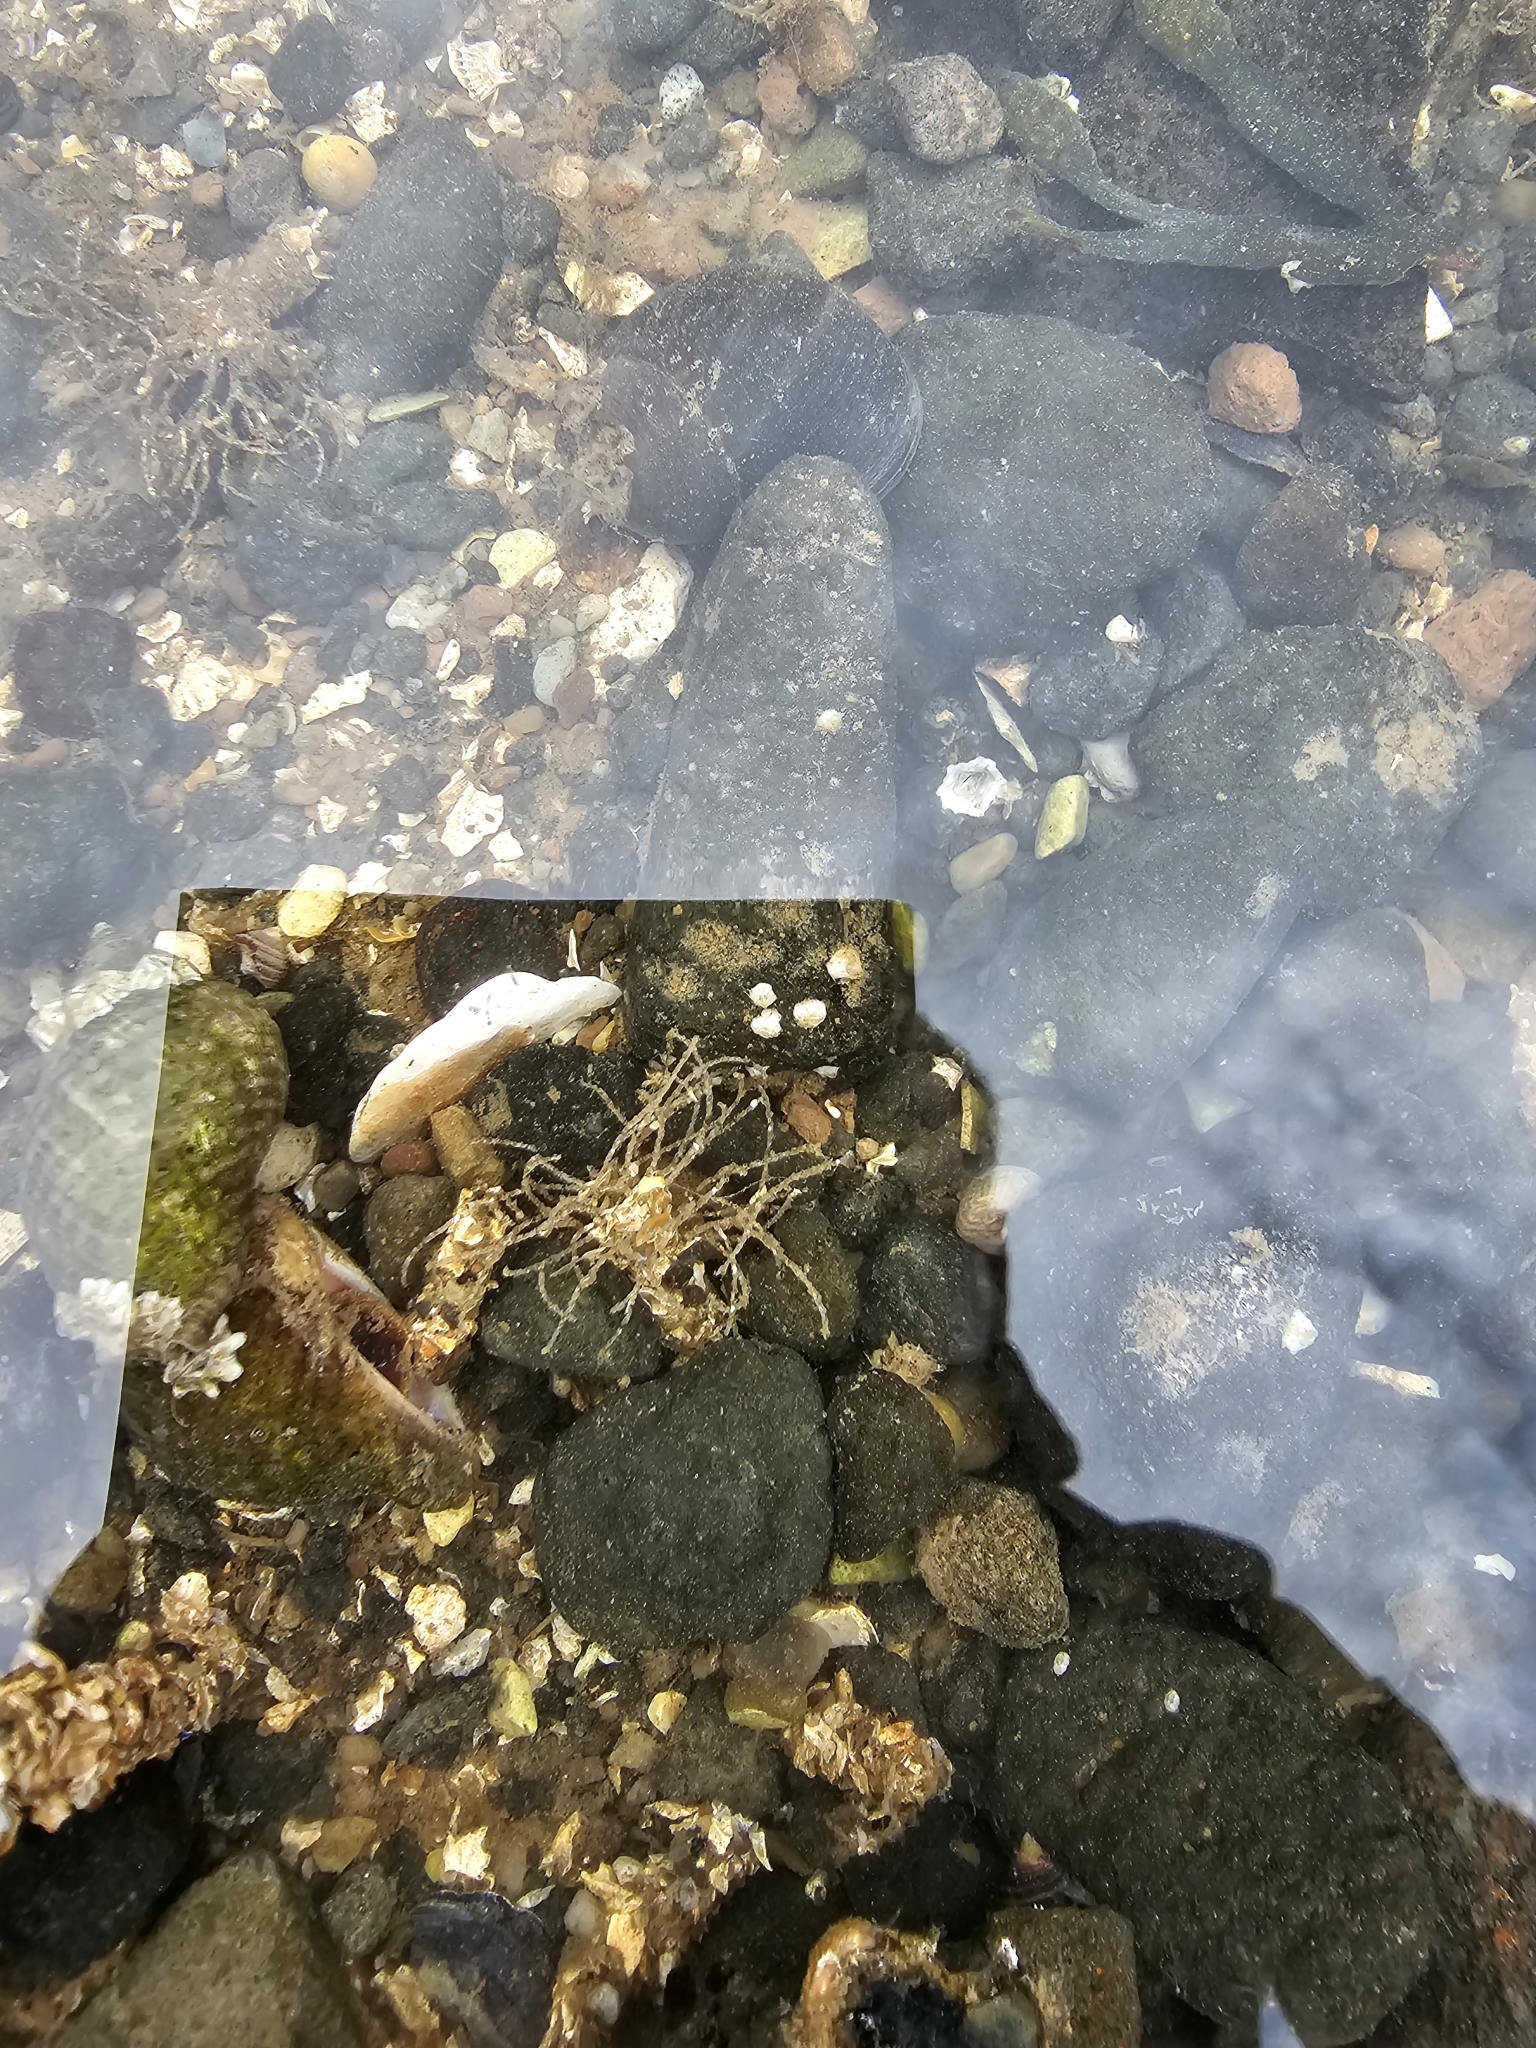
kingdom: Animalia
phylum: Annelida
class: Polychaeta
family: Terebellidae
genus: Lanice
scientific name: Lanice conchilega
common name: Sand mason
